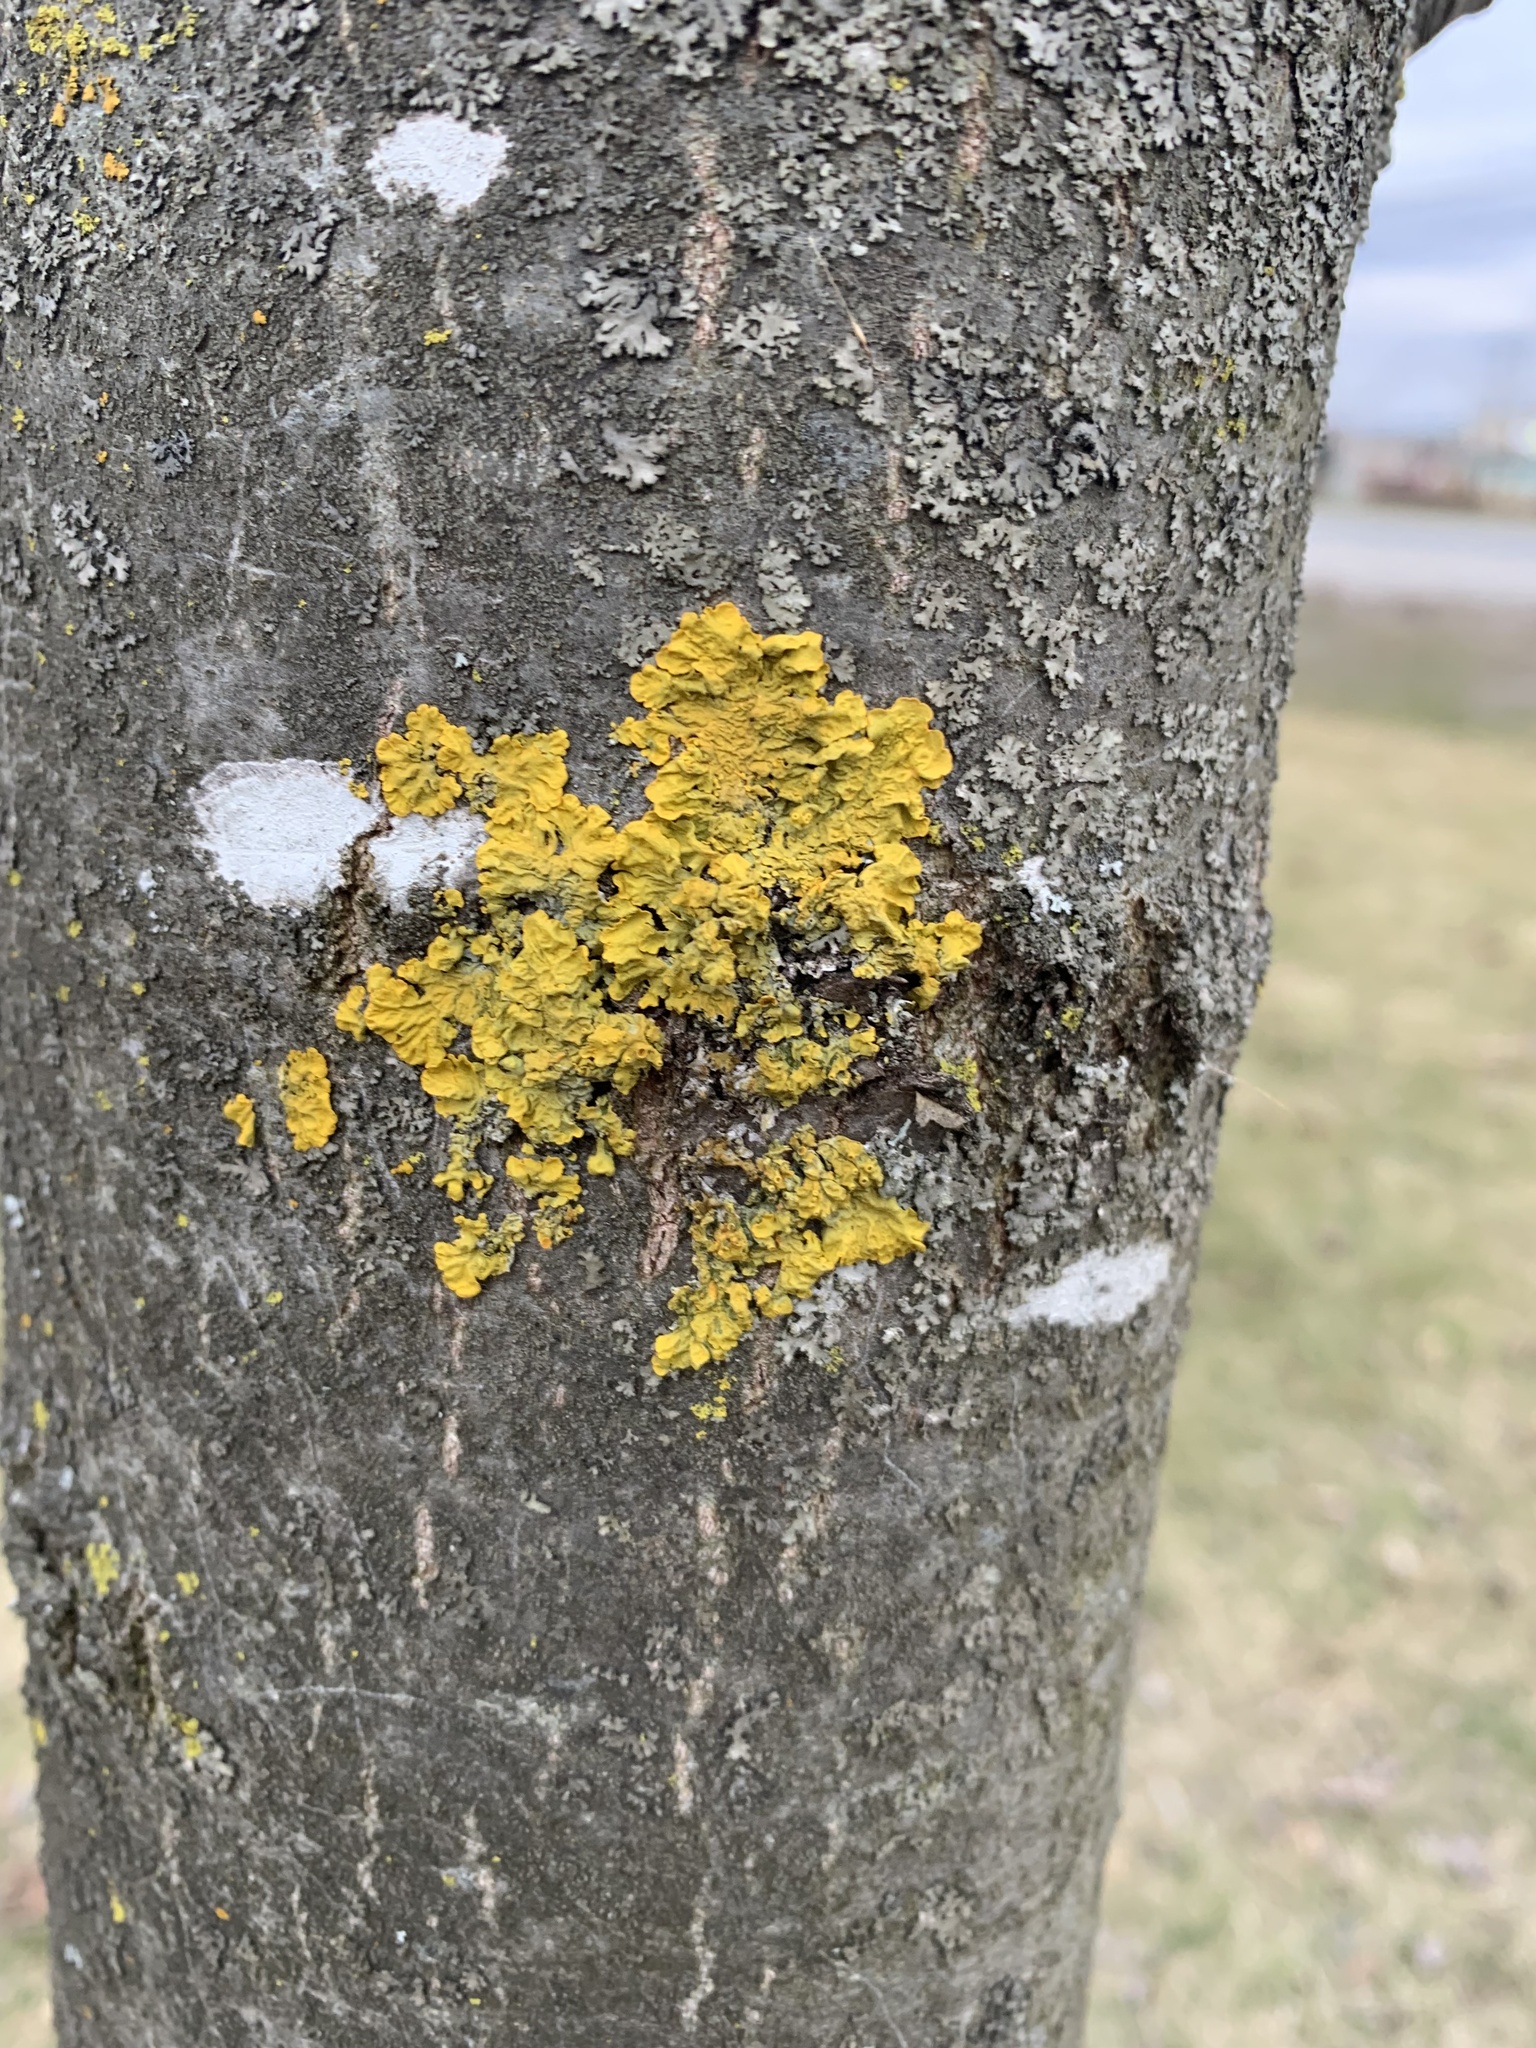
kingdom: Fungi
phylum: Ascomycota
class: Lecanoromycetes
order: Teloschistales
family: Teloschistaceae
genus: Xanthoria
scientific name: Xanthoria parietina
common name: Common orange lichen
